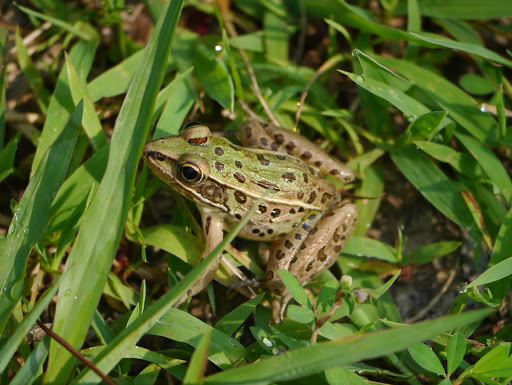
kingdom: Animalia
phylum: Chordata
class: Amphibia
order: Anura
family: Ranidae
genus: Lithobates
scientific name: Lithobates sphenocephalus
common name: Southern leopard frog
